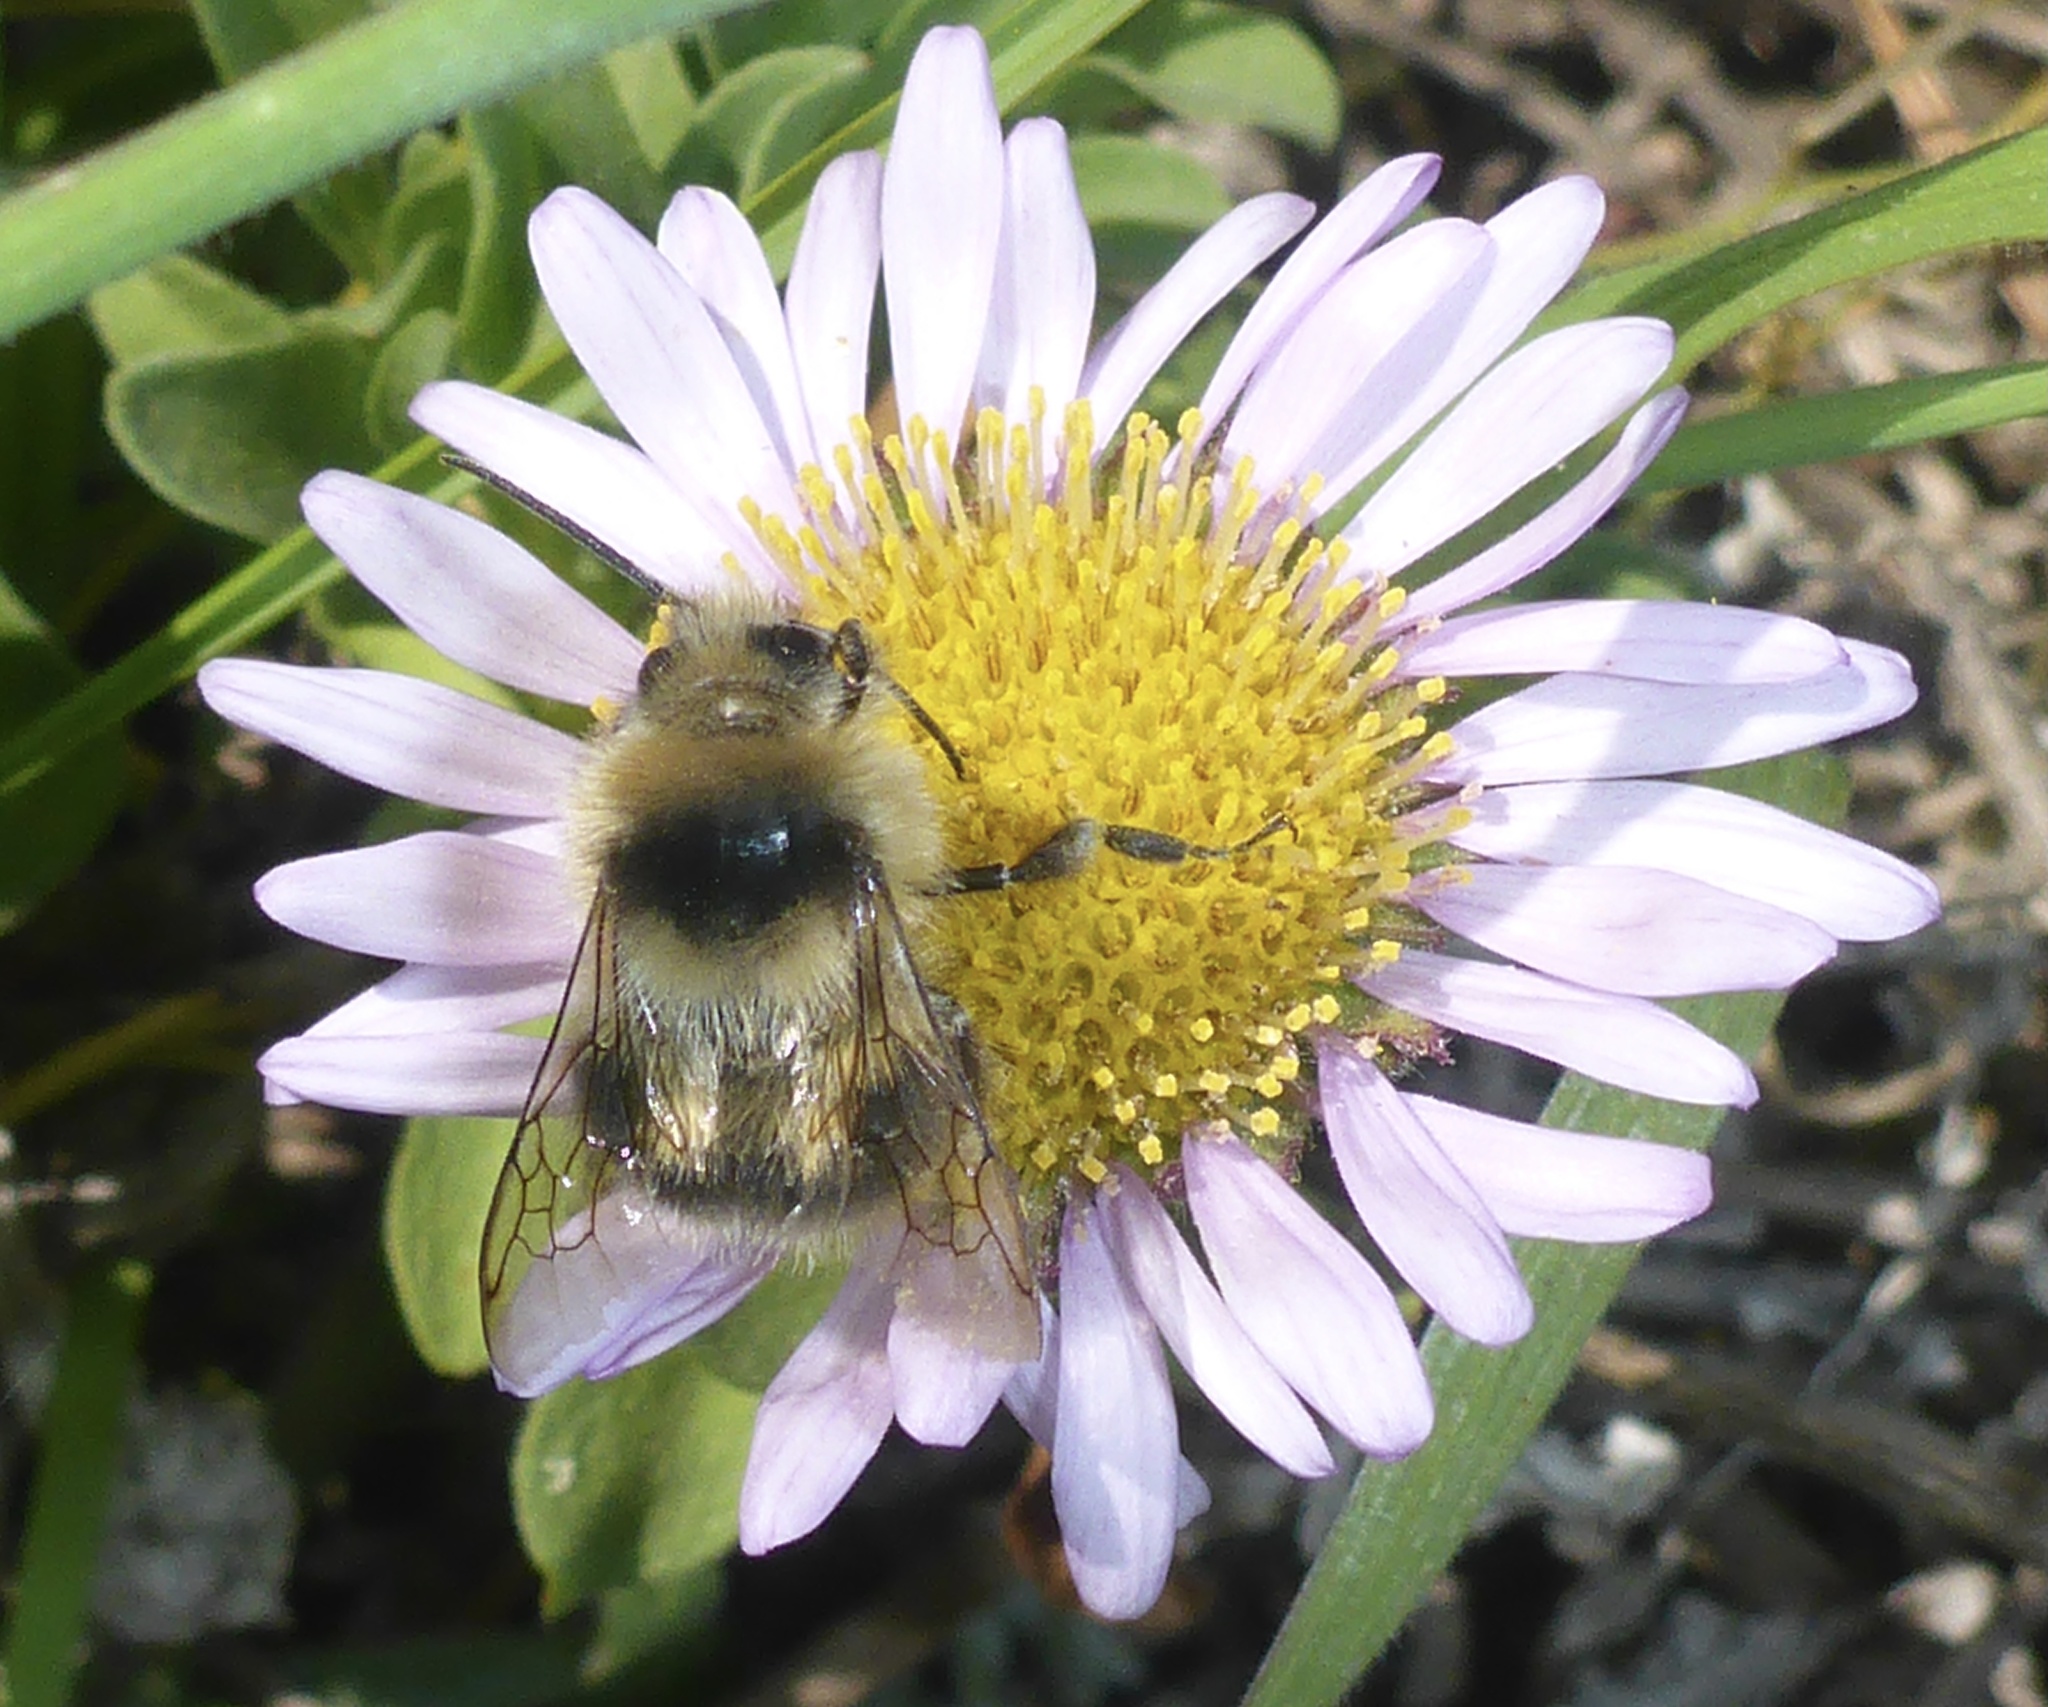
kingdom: Animalia
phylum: Arthropoda
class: Insecta
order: Hymenoptera
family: Apidae
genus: Bombus
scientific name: Bombus melanopygus
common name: Black tail bumble bee
